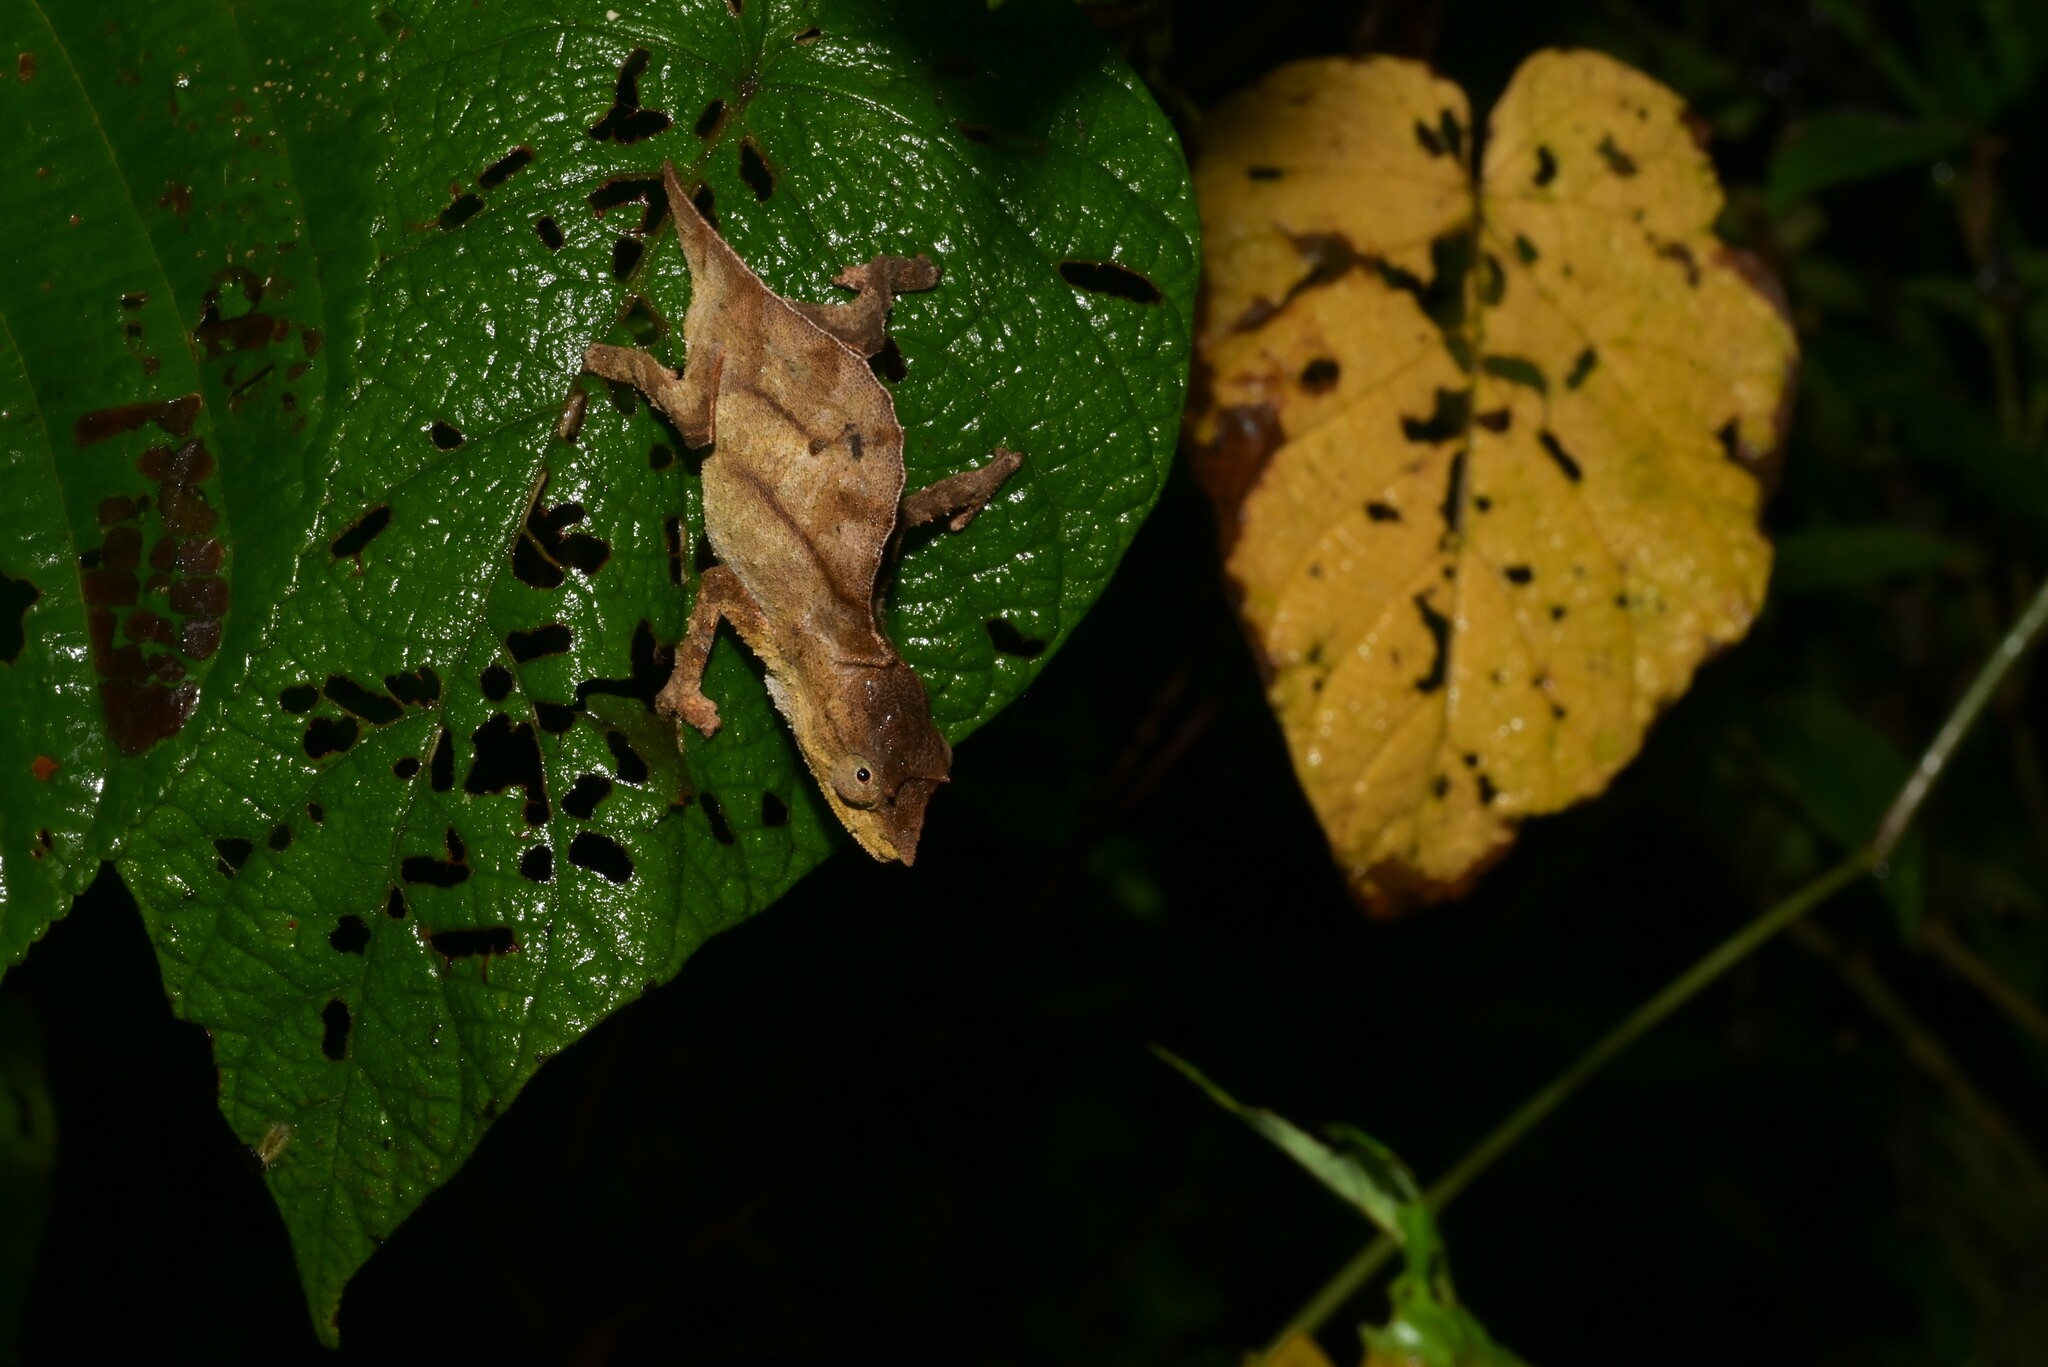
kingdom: Animalia
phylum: Chordata
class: Squamata
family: Chamaeleonidae
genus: Rhampholeon
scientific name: Rhampholeon nchisiensis
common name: South african stumptail chameleon
